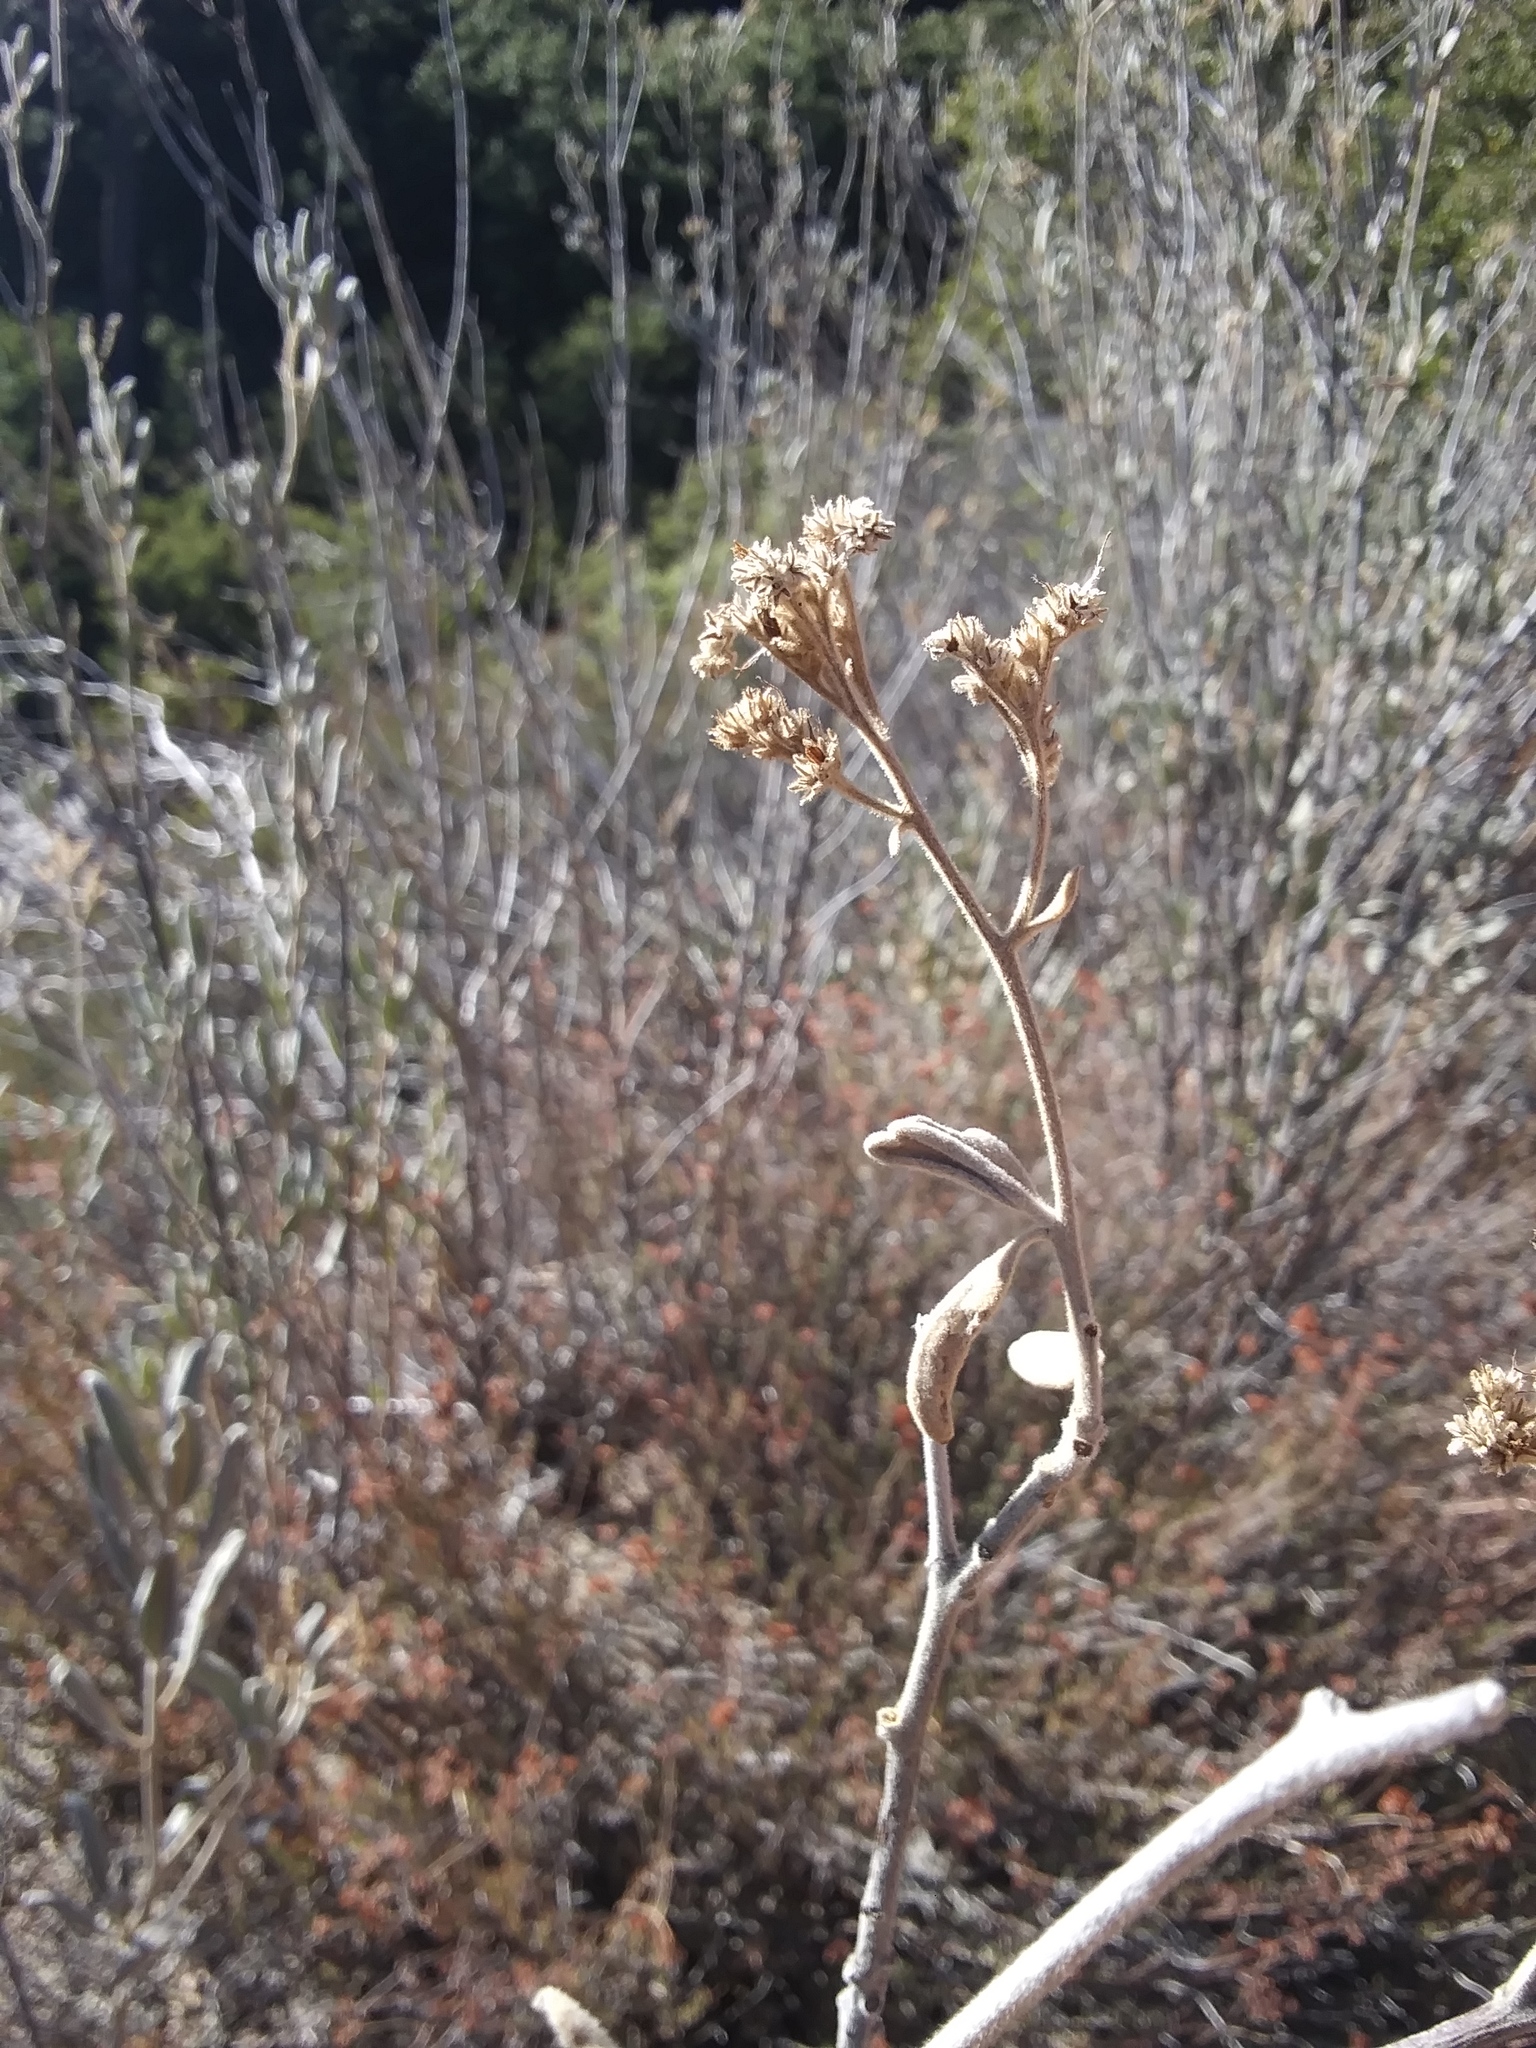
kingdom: Plantae
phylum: Tracheophyta
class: Magnoliopsida
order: Boraginales
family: Namaceae
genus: Eriodictyon
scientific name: Eriodictyon crassifolium
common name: Thick-leaf yerba-santa
